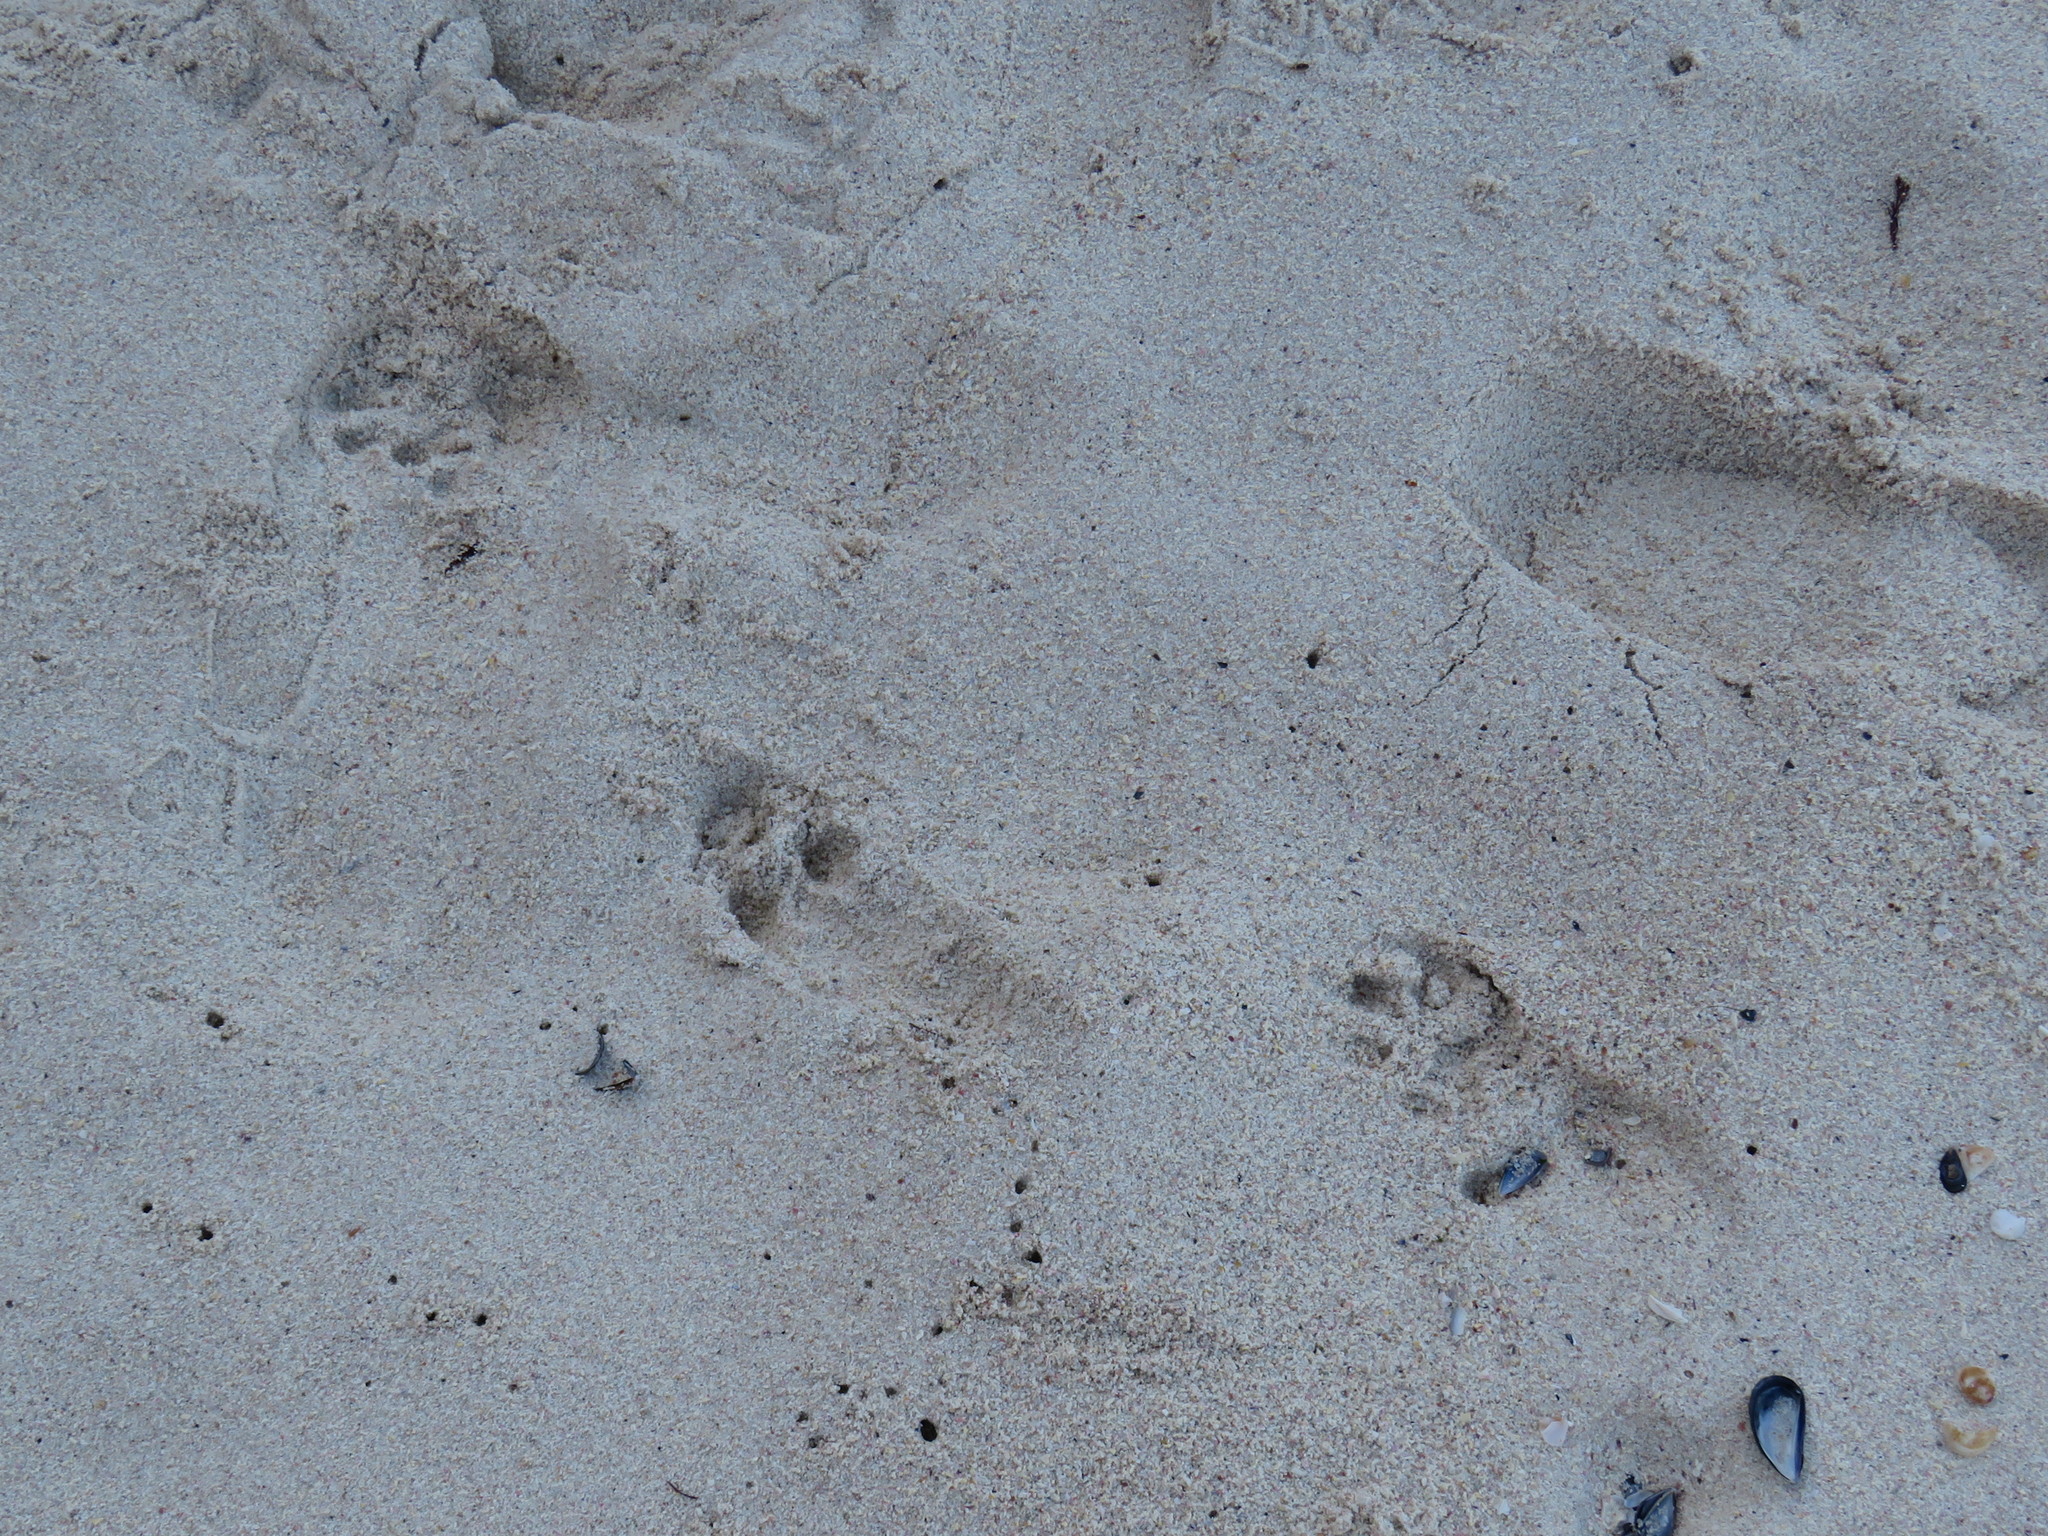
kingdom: Animalia
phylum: Chordata
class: Mammalia
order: Carnivora
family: Mustelidae
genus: Aonyx
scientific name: Aonyx capensis
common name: African clawless otter
